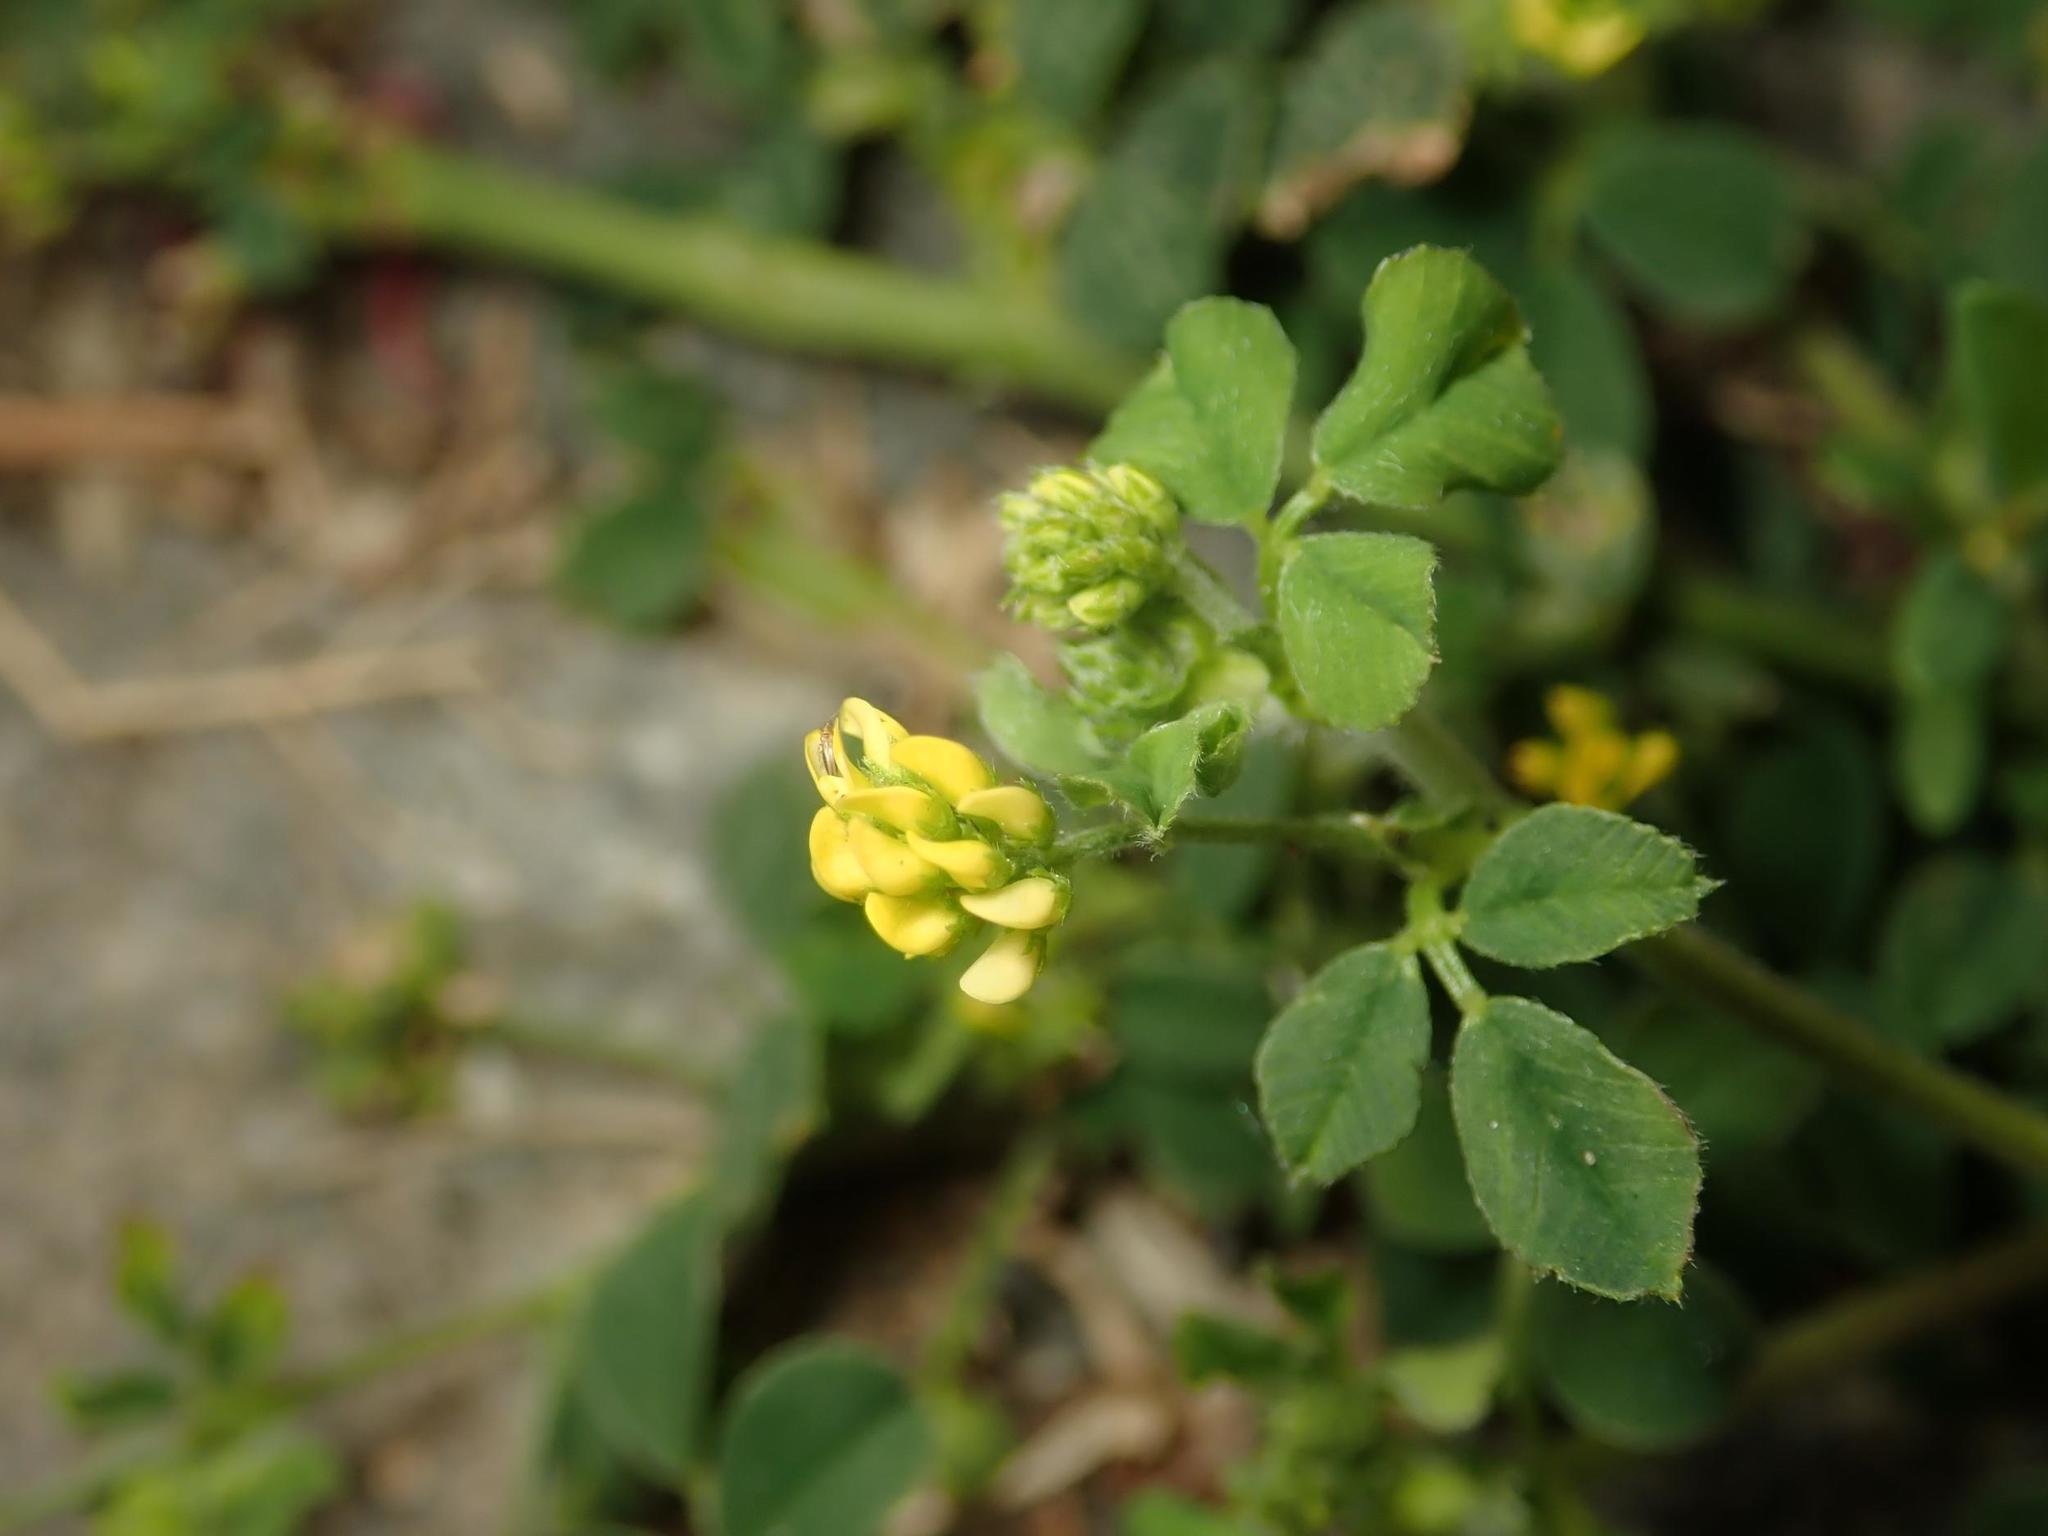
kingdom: Plantae
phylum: Tracheophyta
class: Magnoliopsida
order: Fabales
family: Fabaceae
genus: Medicago
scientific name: Medicago lupulina
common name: Black medick
